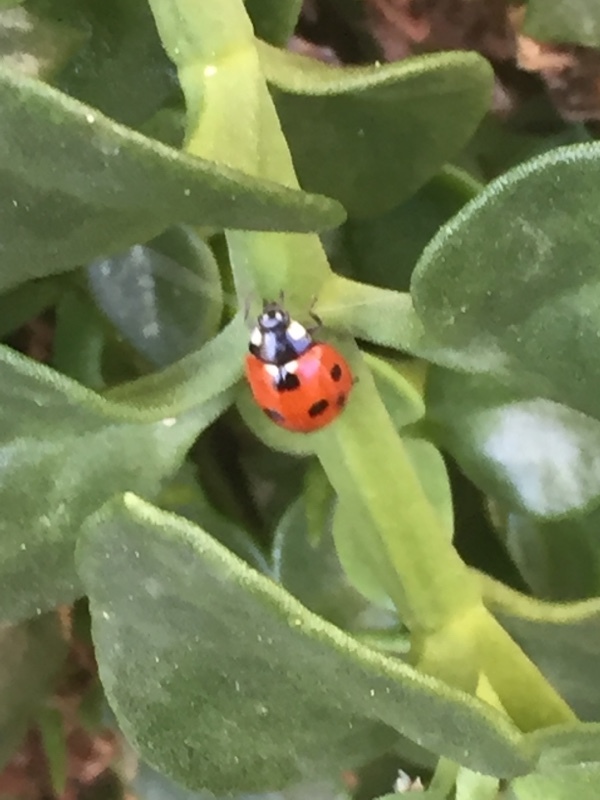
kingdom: Animalia
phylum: Arthropoda
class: Insecta
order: Coleoptera
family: Coccinellidae
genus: Coccinella
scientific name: Coccinella septempunctata
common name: Sevenspotted lady beetle
